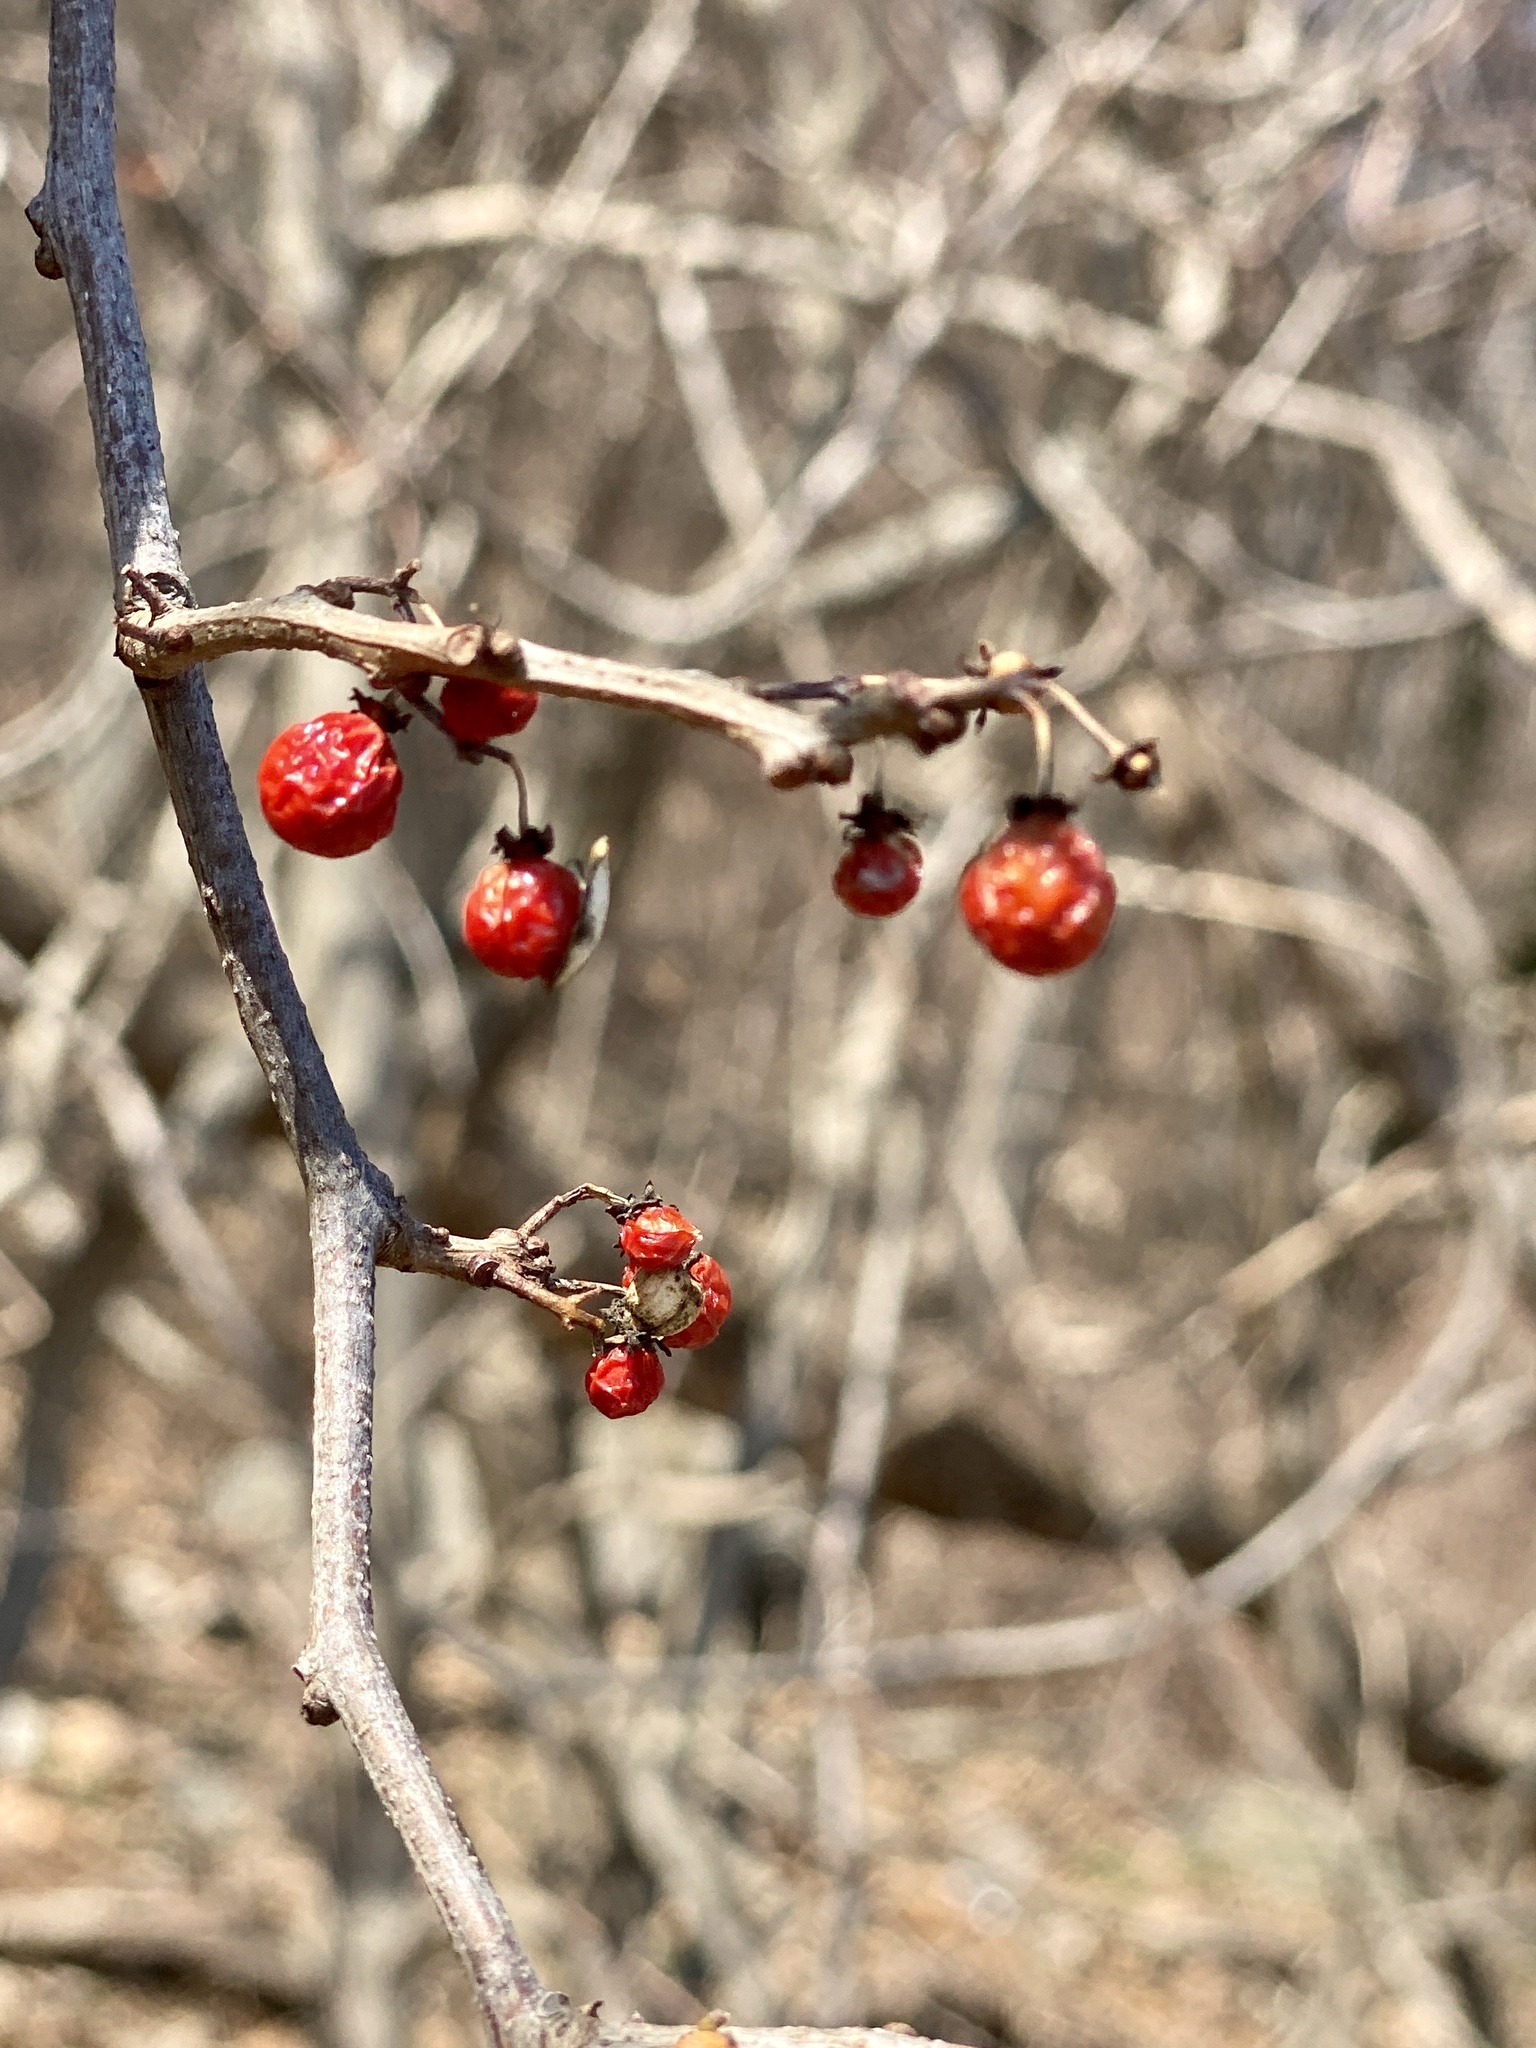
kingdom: Plantae
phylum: Tracheophyta
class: Magnoliopsida
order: Celastrales
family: Celastraceae
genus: Celastrus
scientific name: Celastrus orbiculatus
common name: Oriental bittersweet
